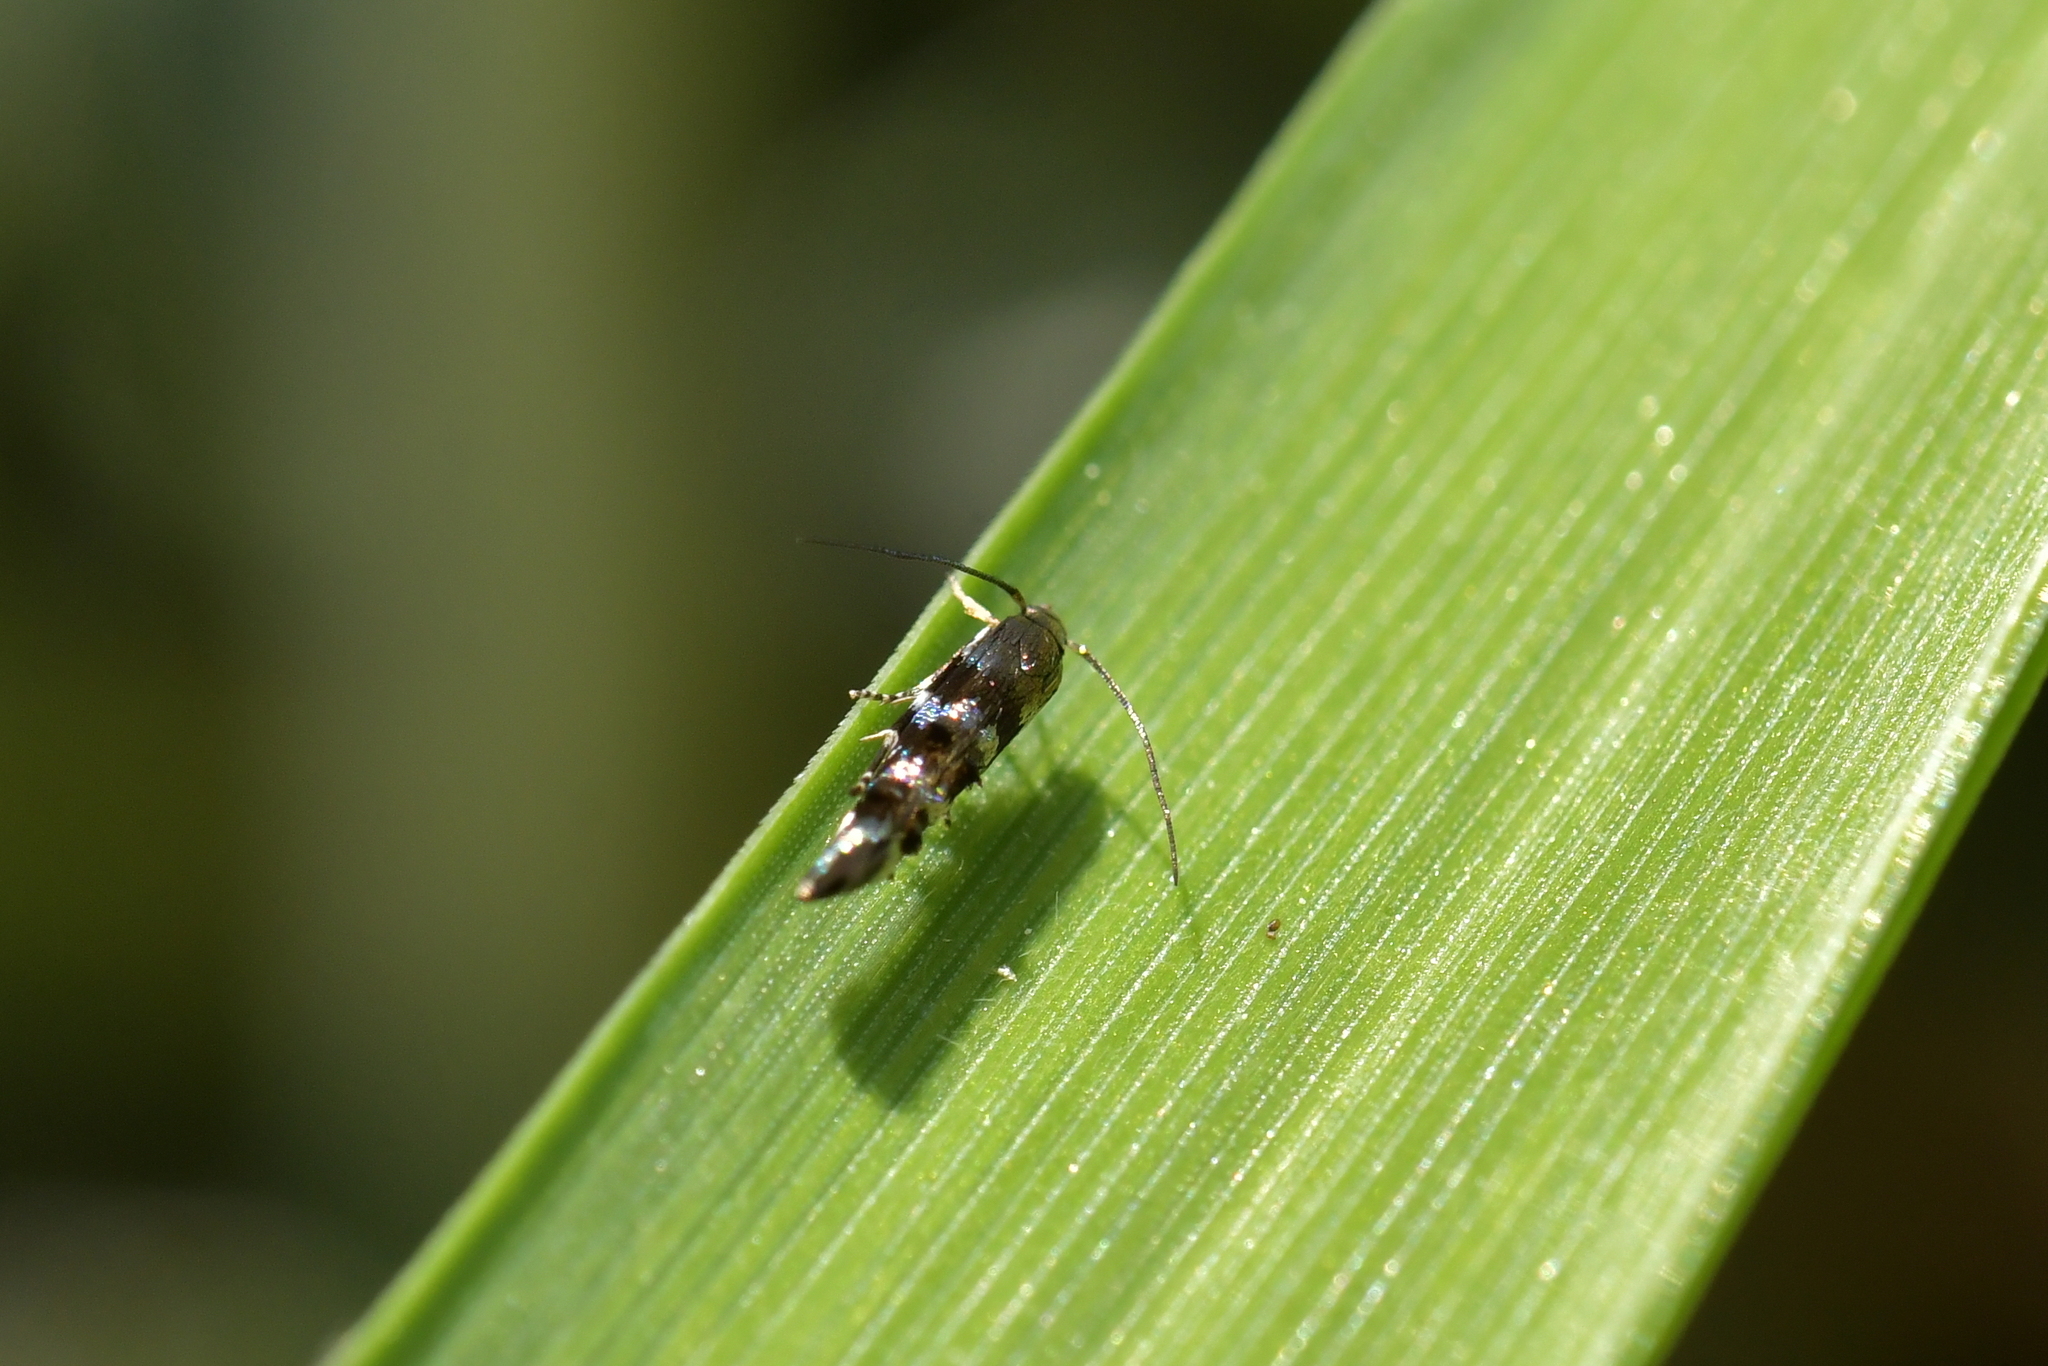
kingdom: Animalia
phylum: Arthropoda
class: Insecta
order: Lepidoptera
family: Momphidae
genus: Zapyrastra
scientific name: Zapyrastra
